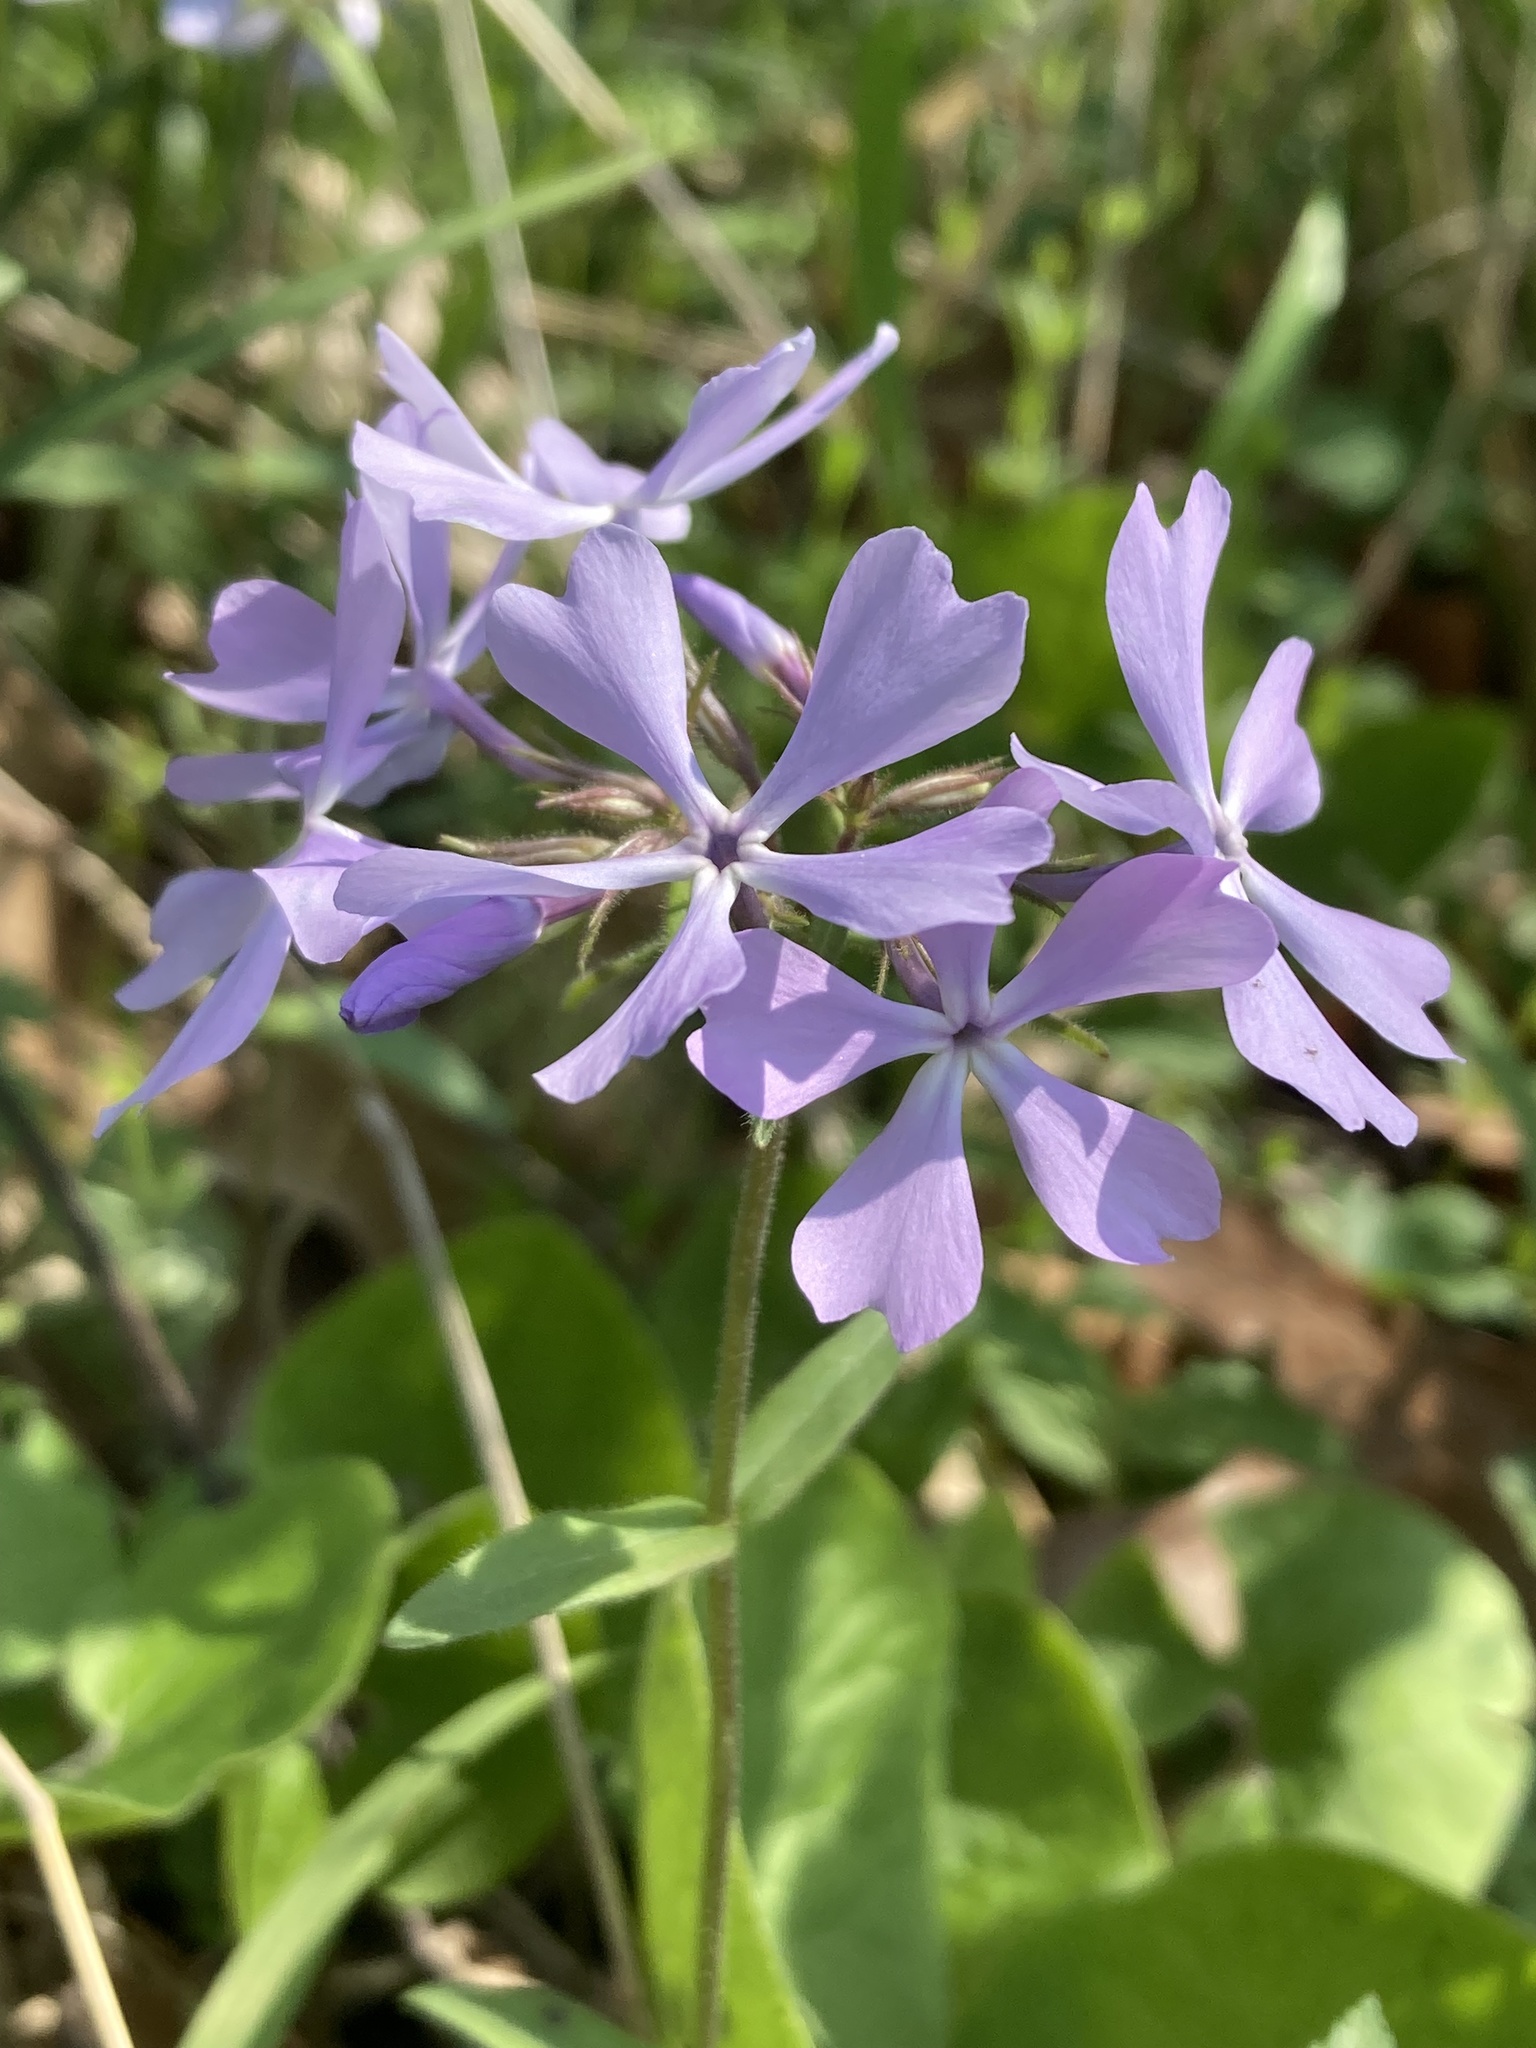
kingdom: Plantae
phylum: Tracheophyta
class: Magnoliopsida
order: Ericales
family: Polemoniaceae
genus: Phlox
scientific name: Phlox divaricata
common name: Blue phlox
